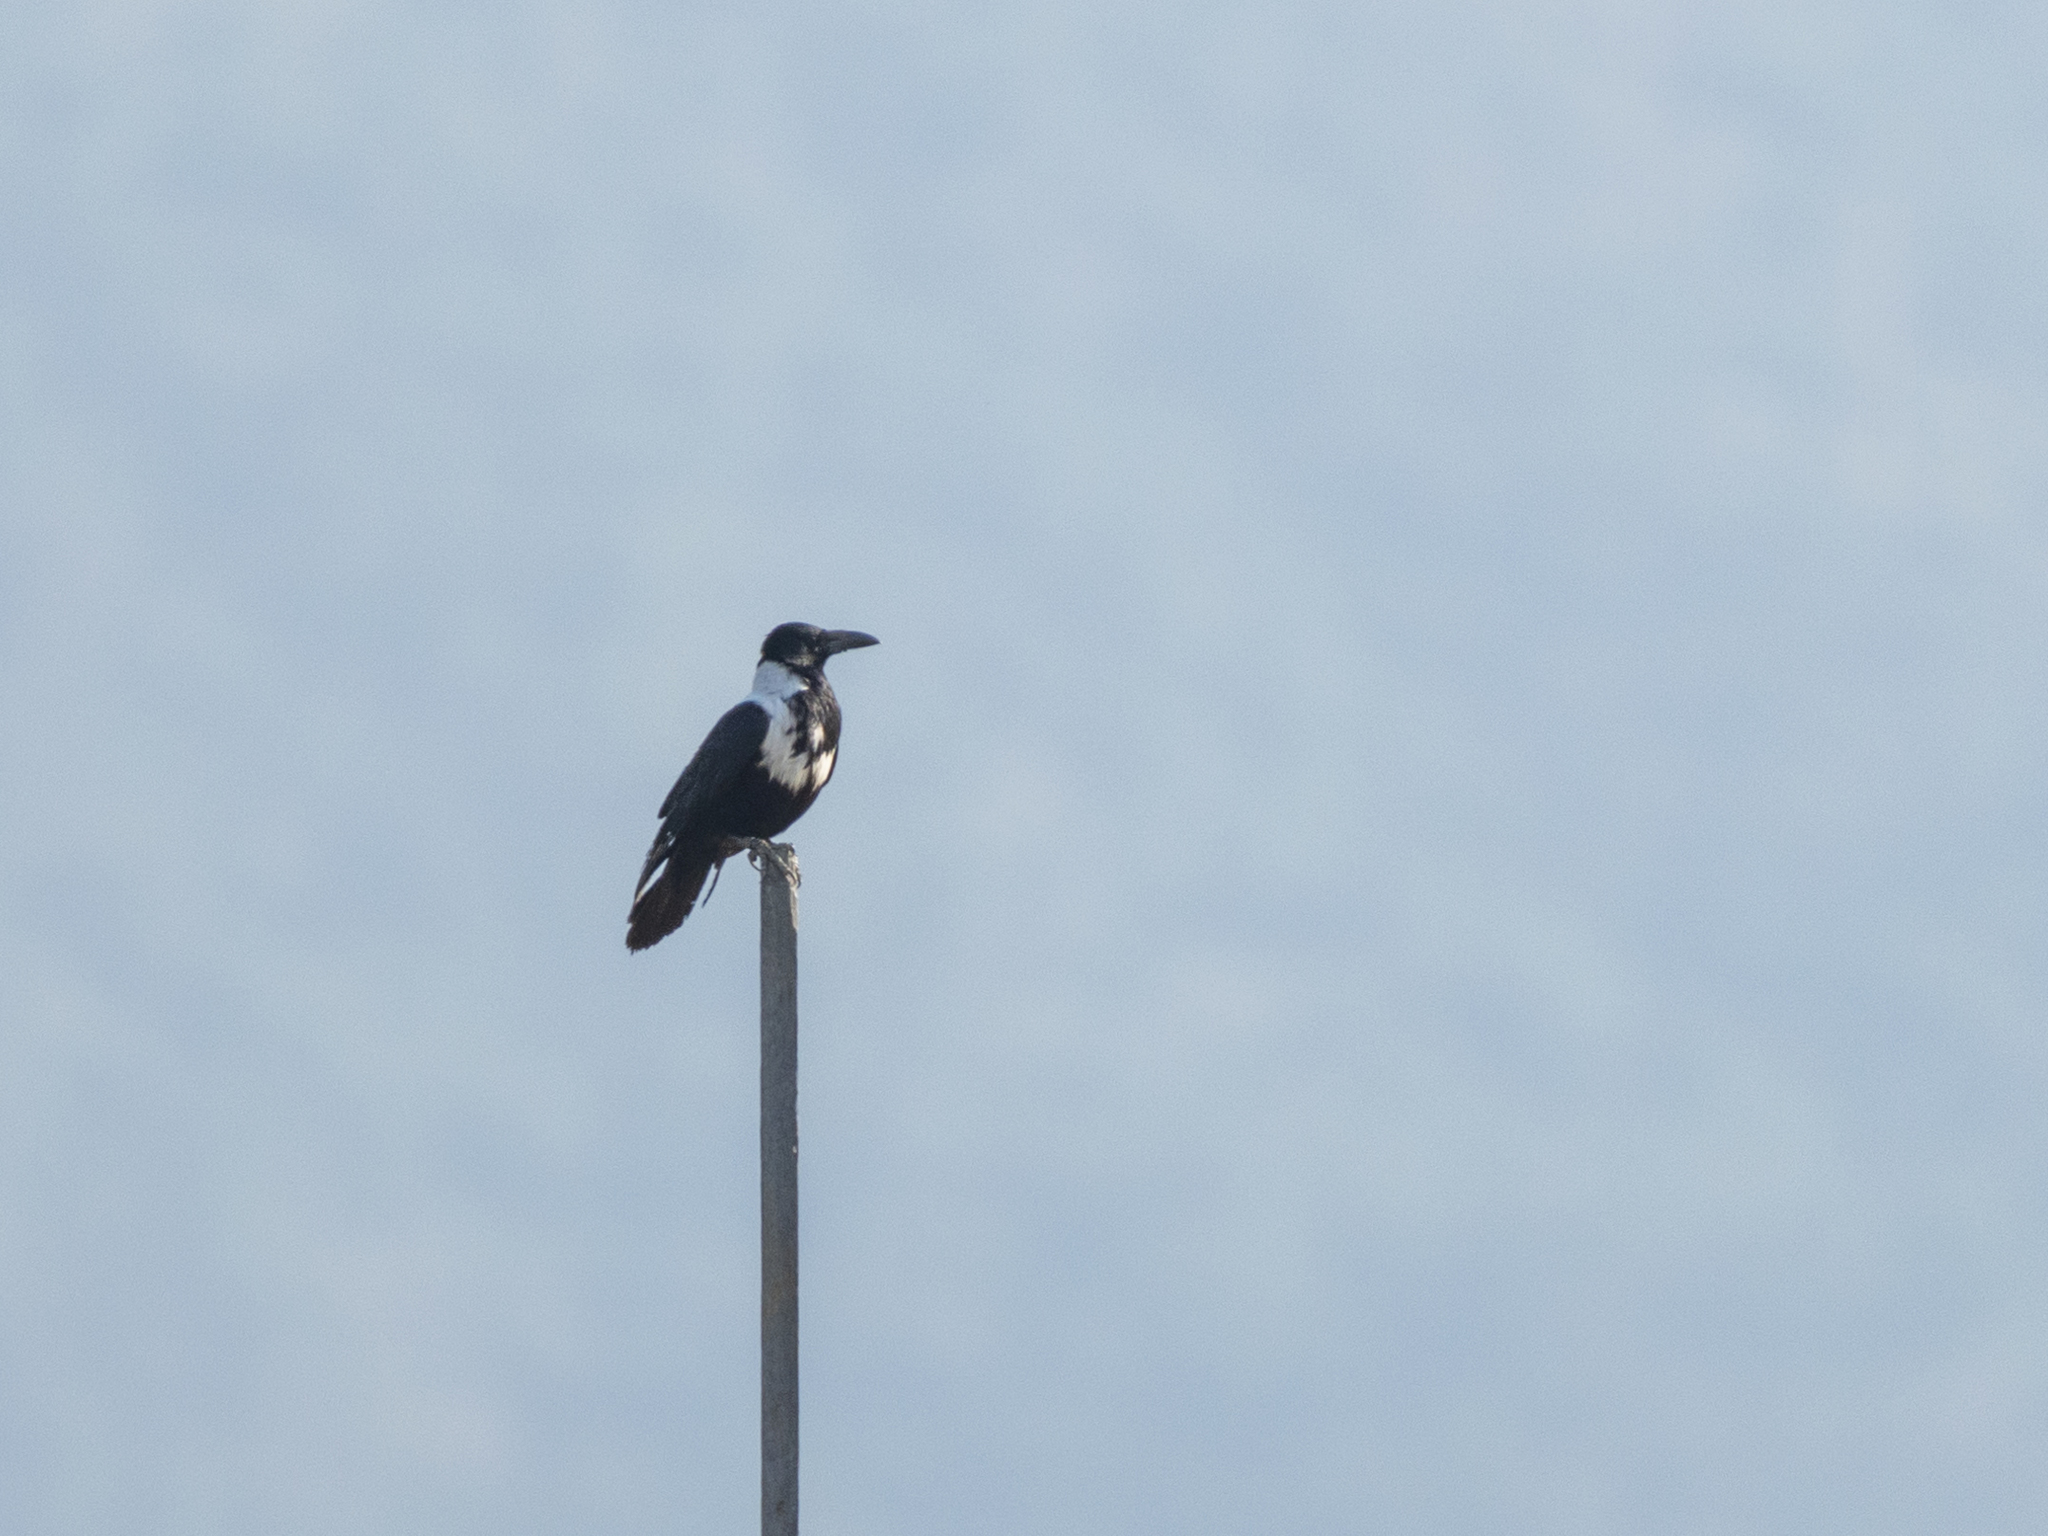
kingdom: Animalia
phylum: Chordata
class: Aves
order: Passeriformes
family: Corvidae
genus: Corvus
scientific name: Corvus pectoralis
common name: Collared crow
